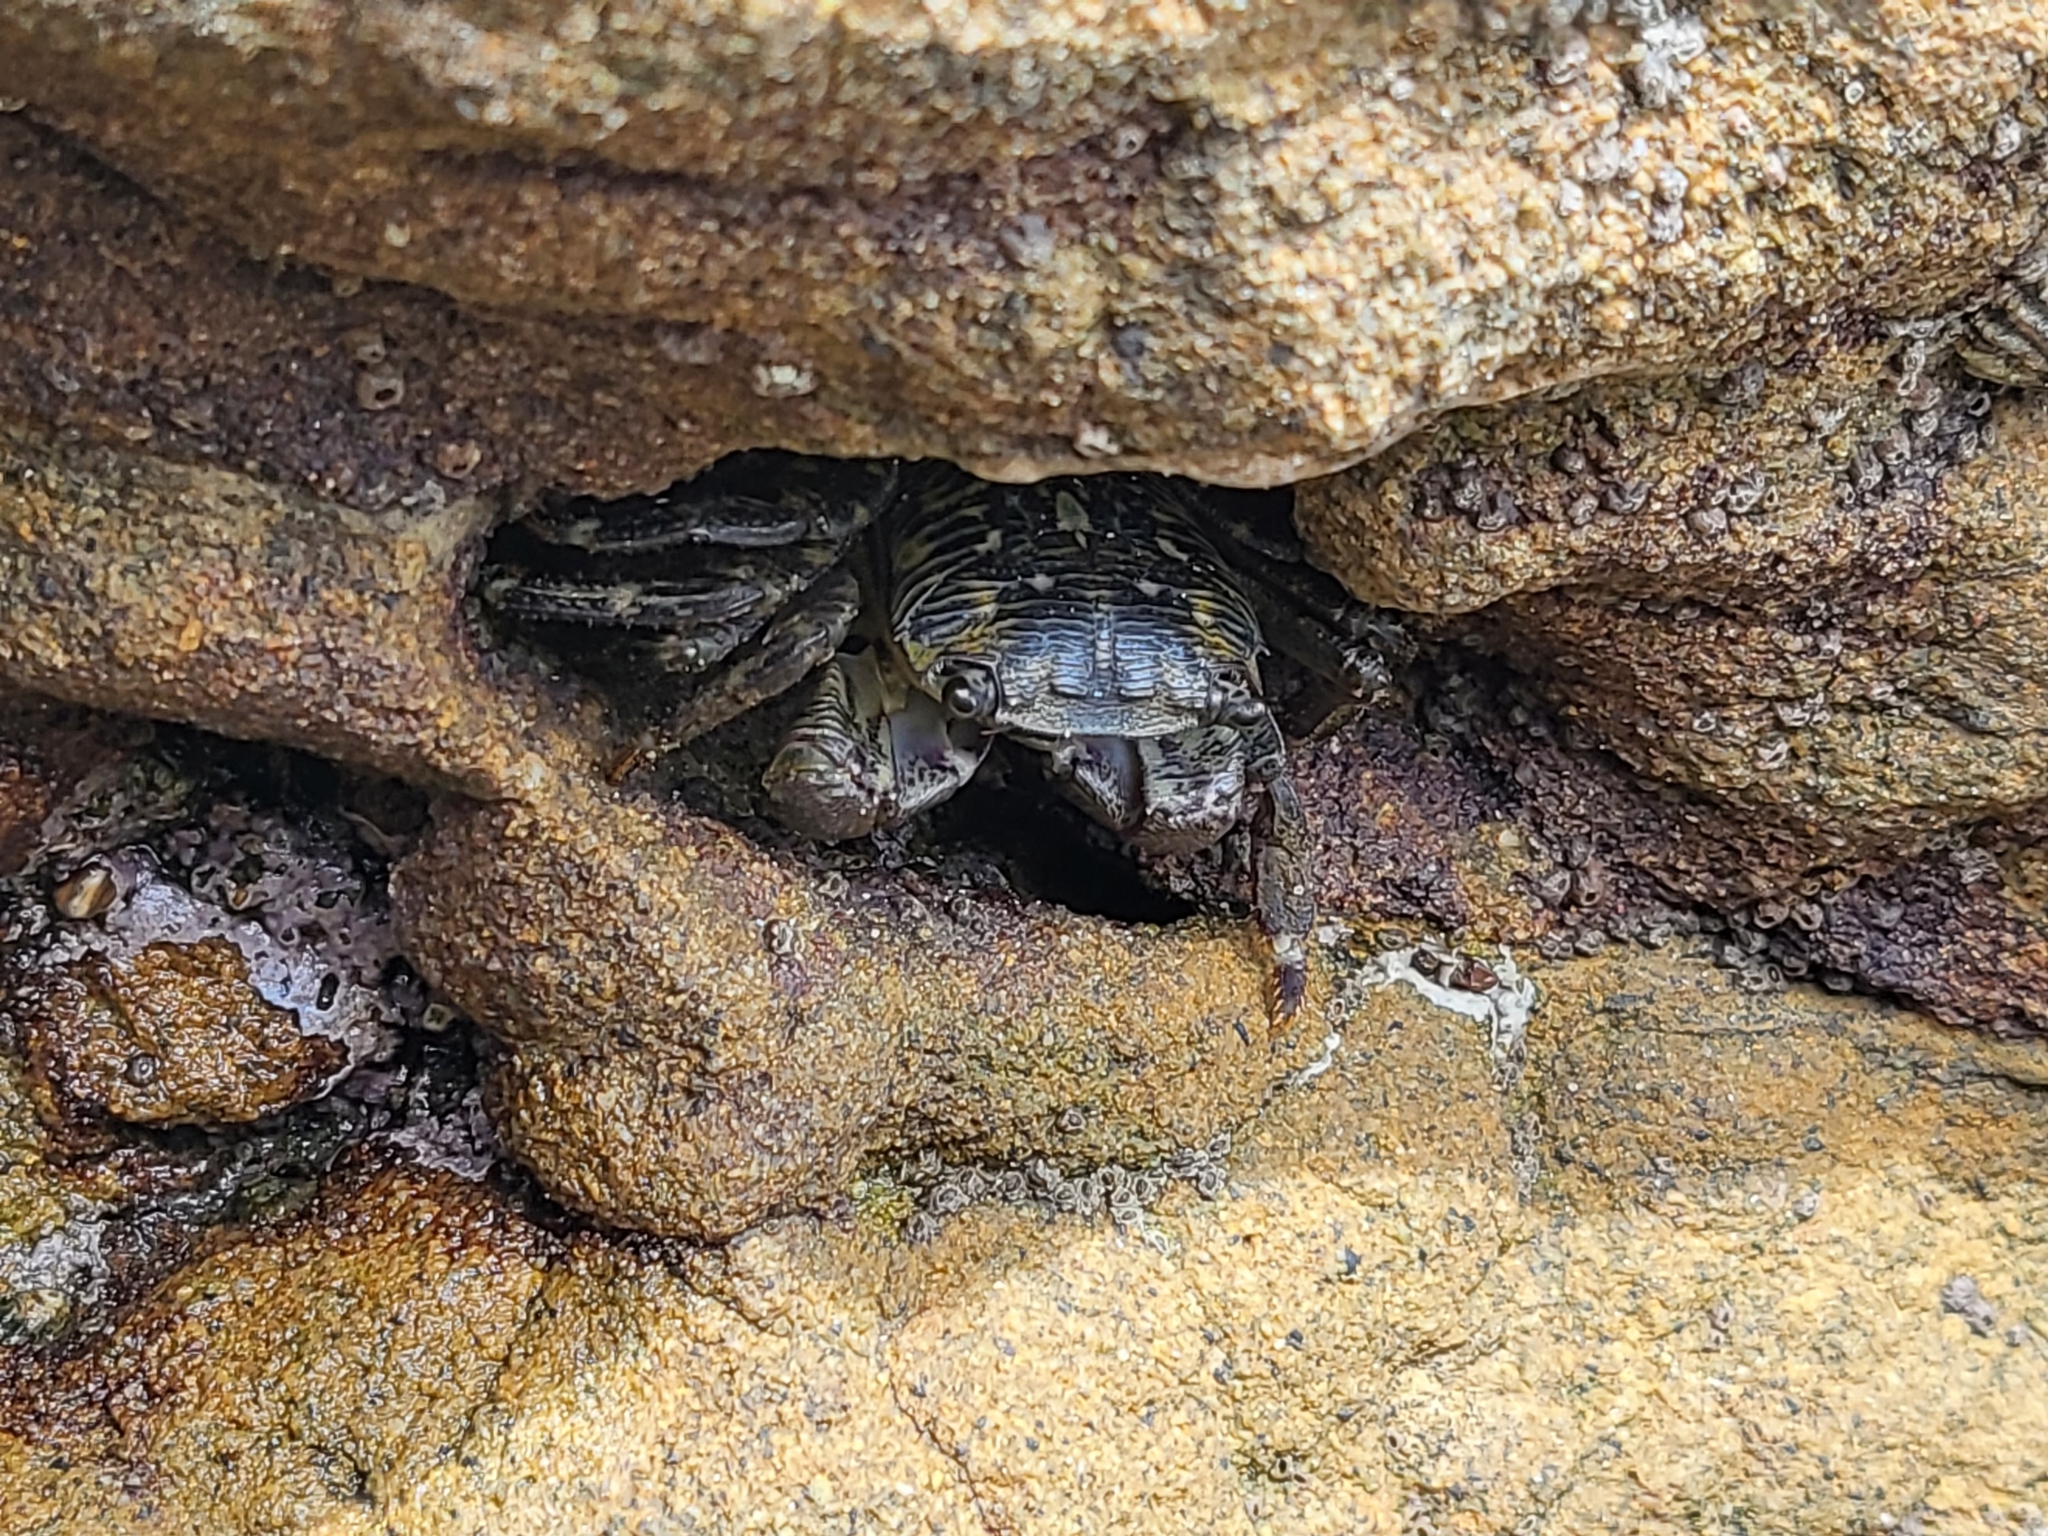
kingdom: Animalia
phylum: Arthropoda
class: Malacostraca
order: Decapoda
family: Grapsidae
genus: Pachygrapsus
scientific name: Pachygrapsus crassipes
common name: Striped shore crab
